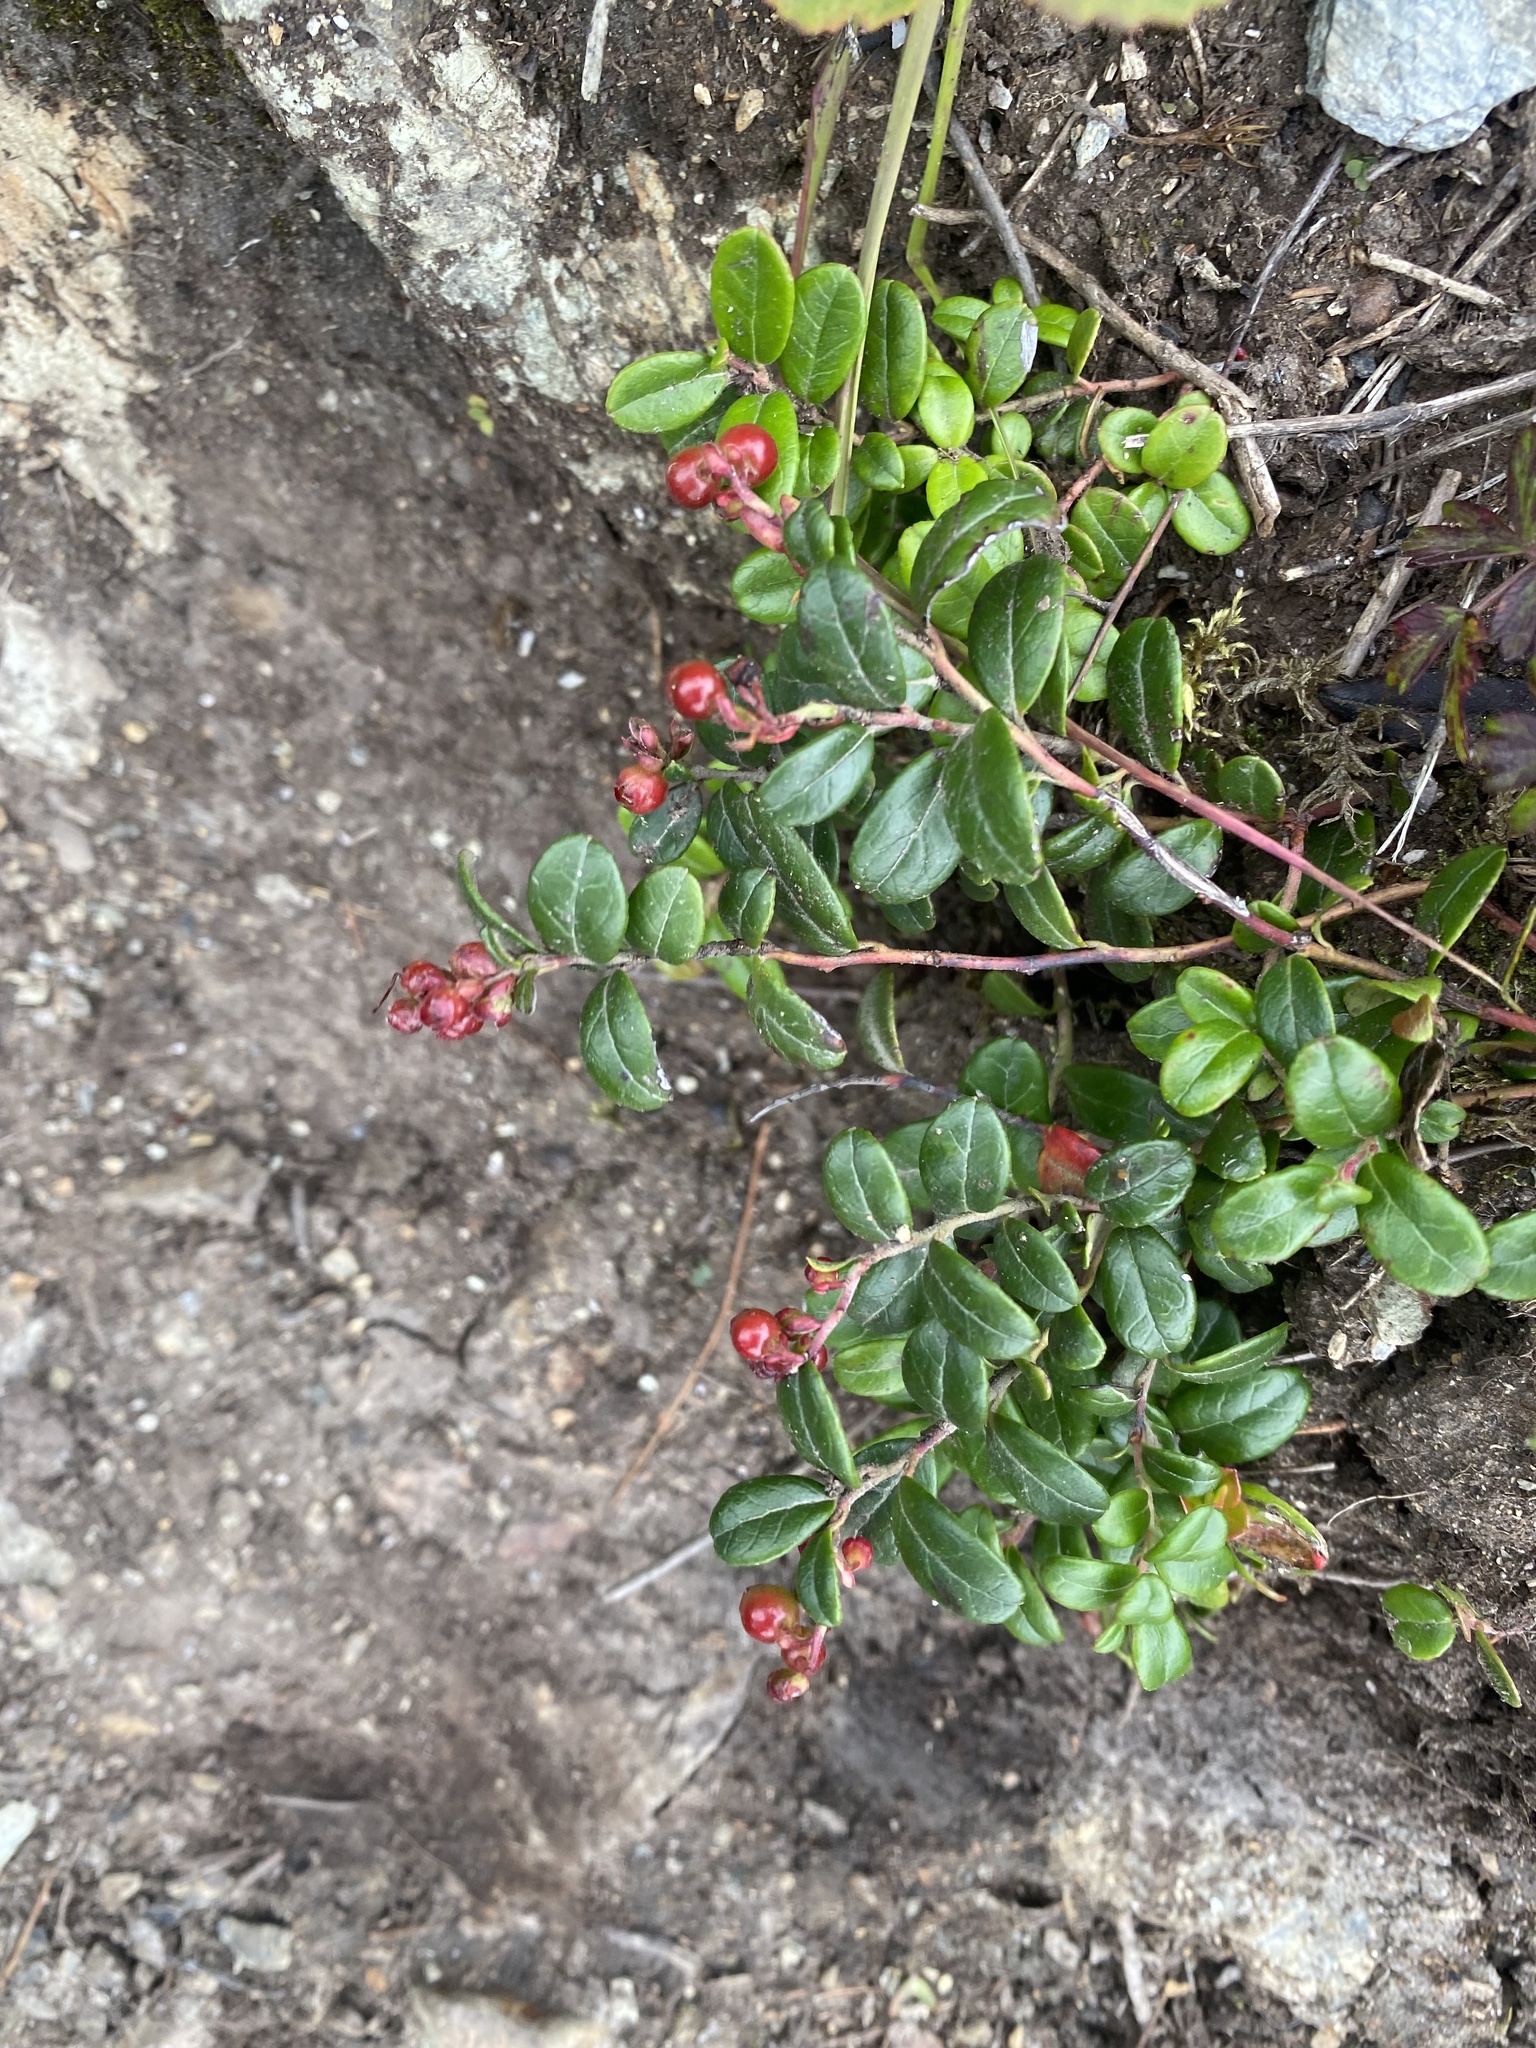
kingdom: Plantae
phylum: Tracheophyta
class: Magnoliopsida
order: Ericales
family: Ericaceae
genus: Vaccinium
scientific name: Vaccinium vitis-idaea
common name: Cowberry
